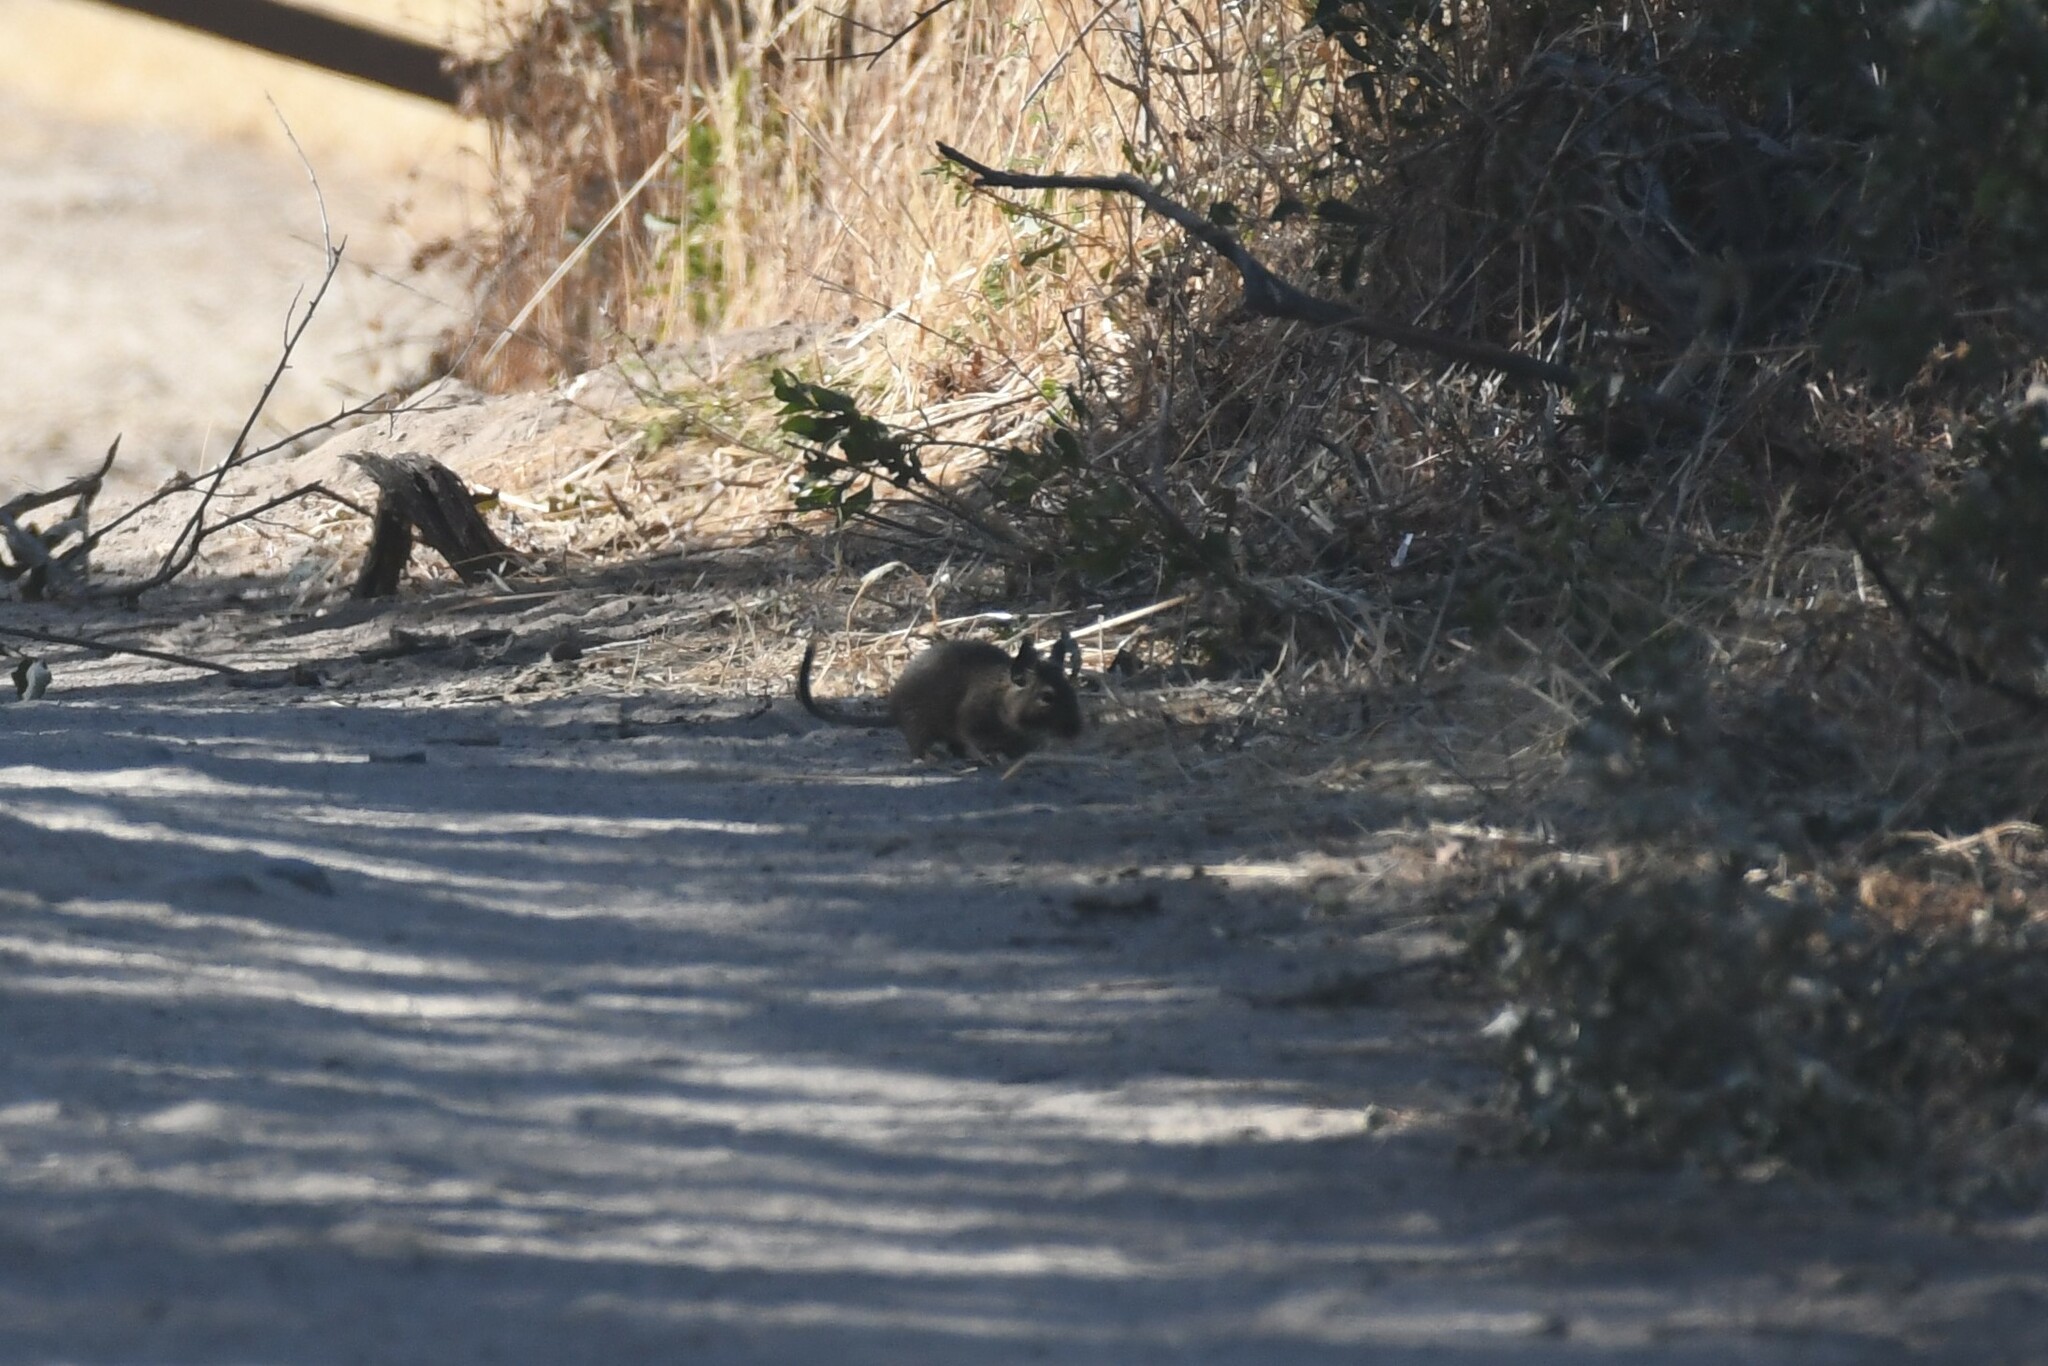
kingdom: Animalia
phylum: Chordata
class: Mammalia
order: Rodentia
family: Octodontidae
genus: Octodon
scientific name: Octodon degus
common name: Degu
